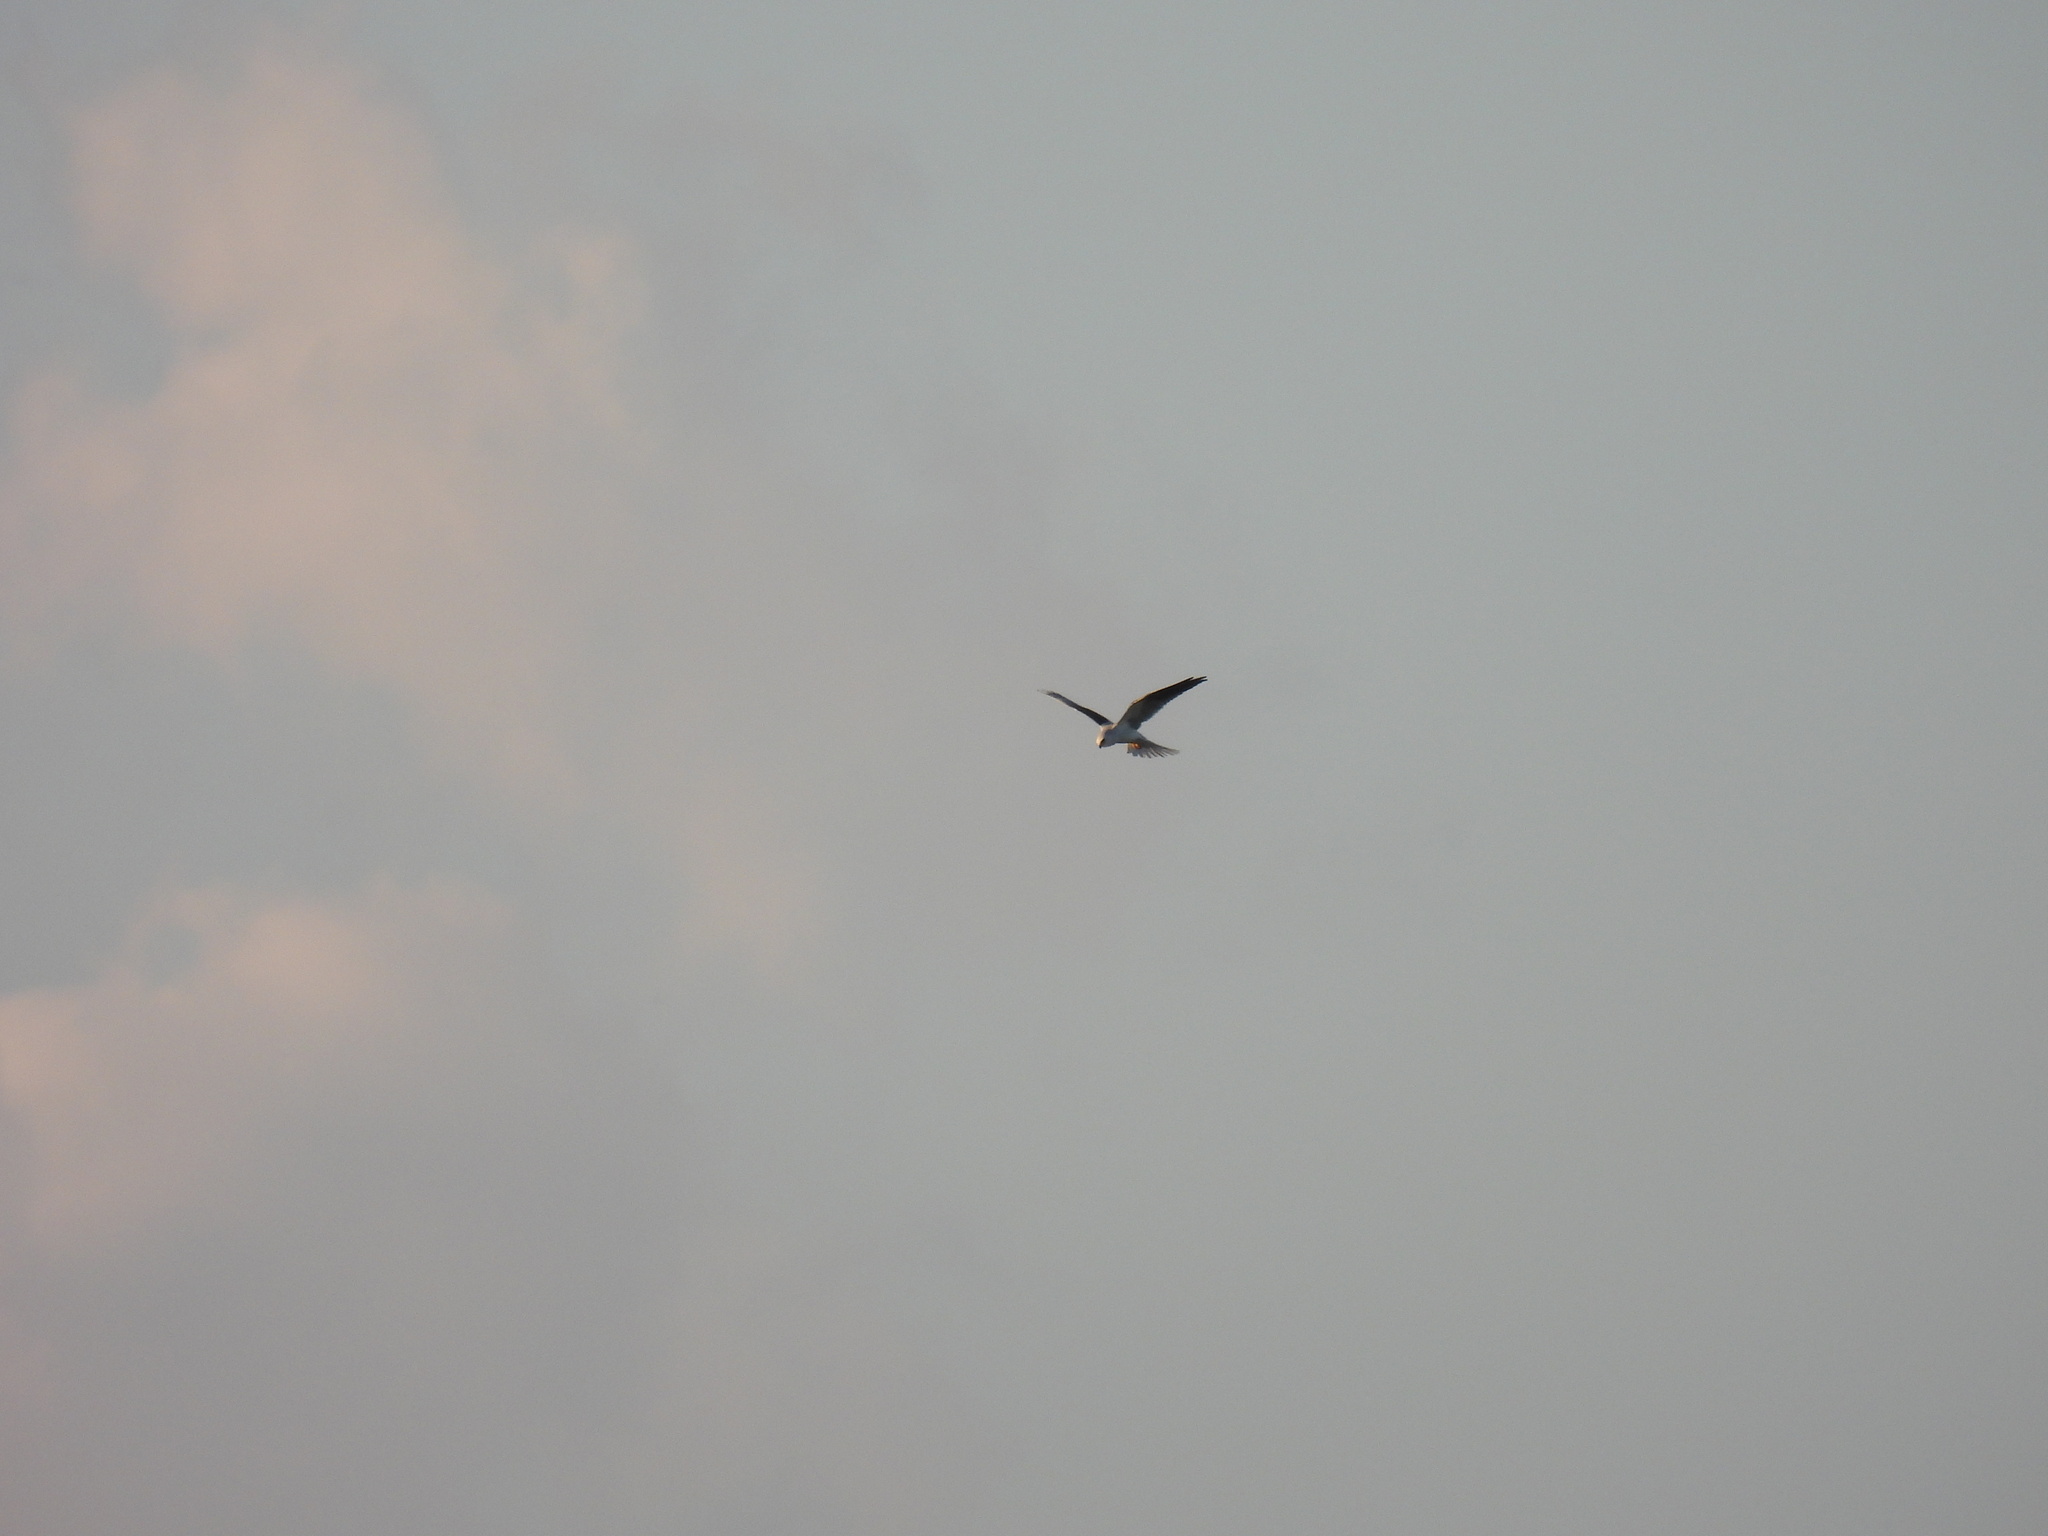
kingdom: Animalia
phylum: Chordata
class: Aves
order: Accipitriformes
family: Accipitridae
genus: Elanus
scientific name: Elanus leucurus
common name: White-tailed kite
